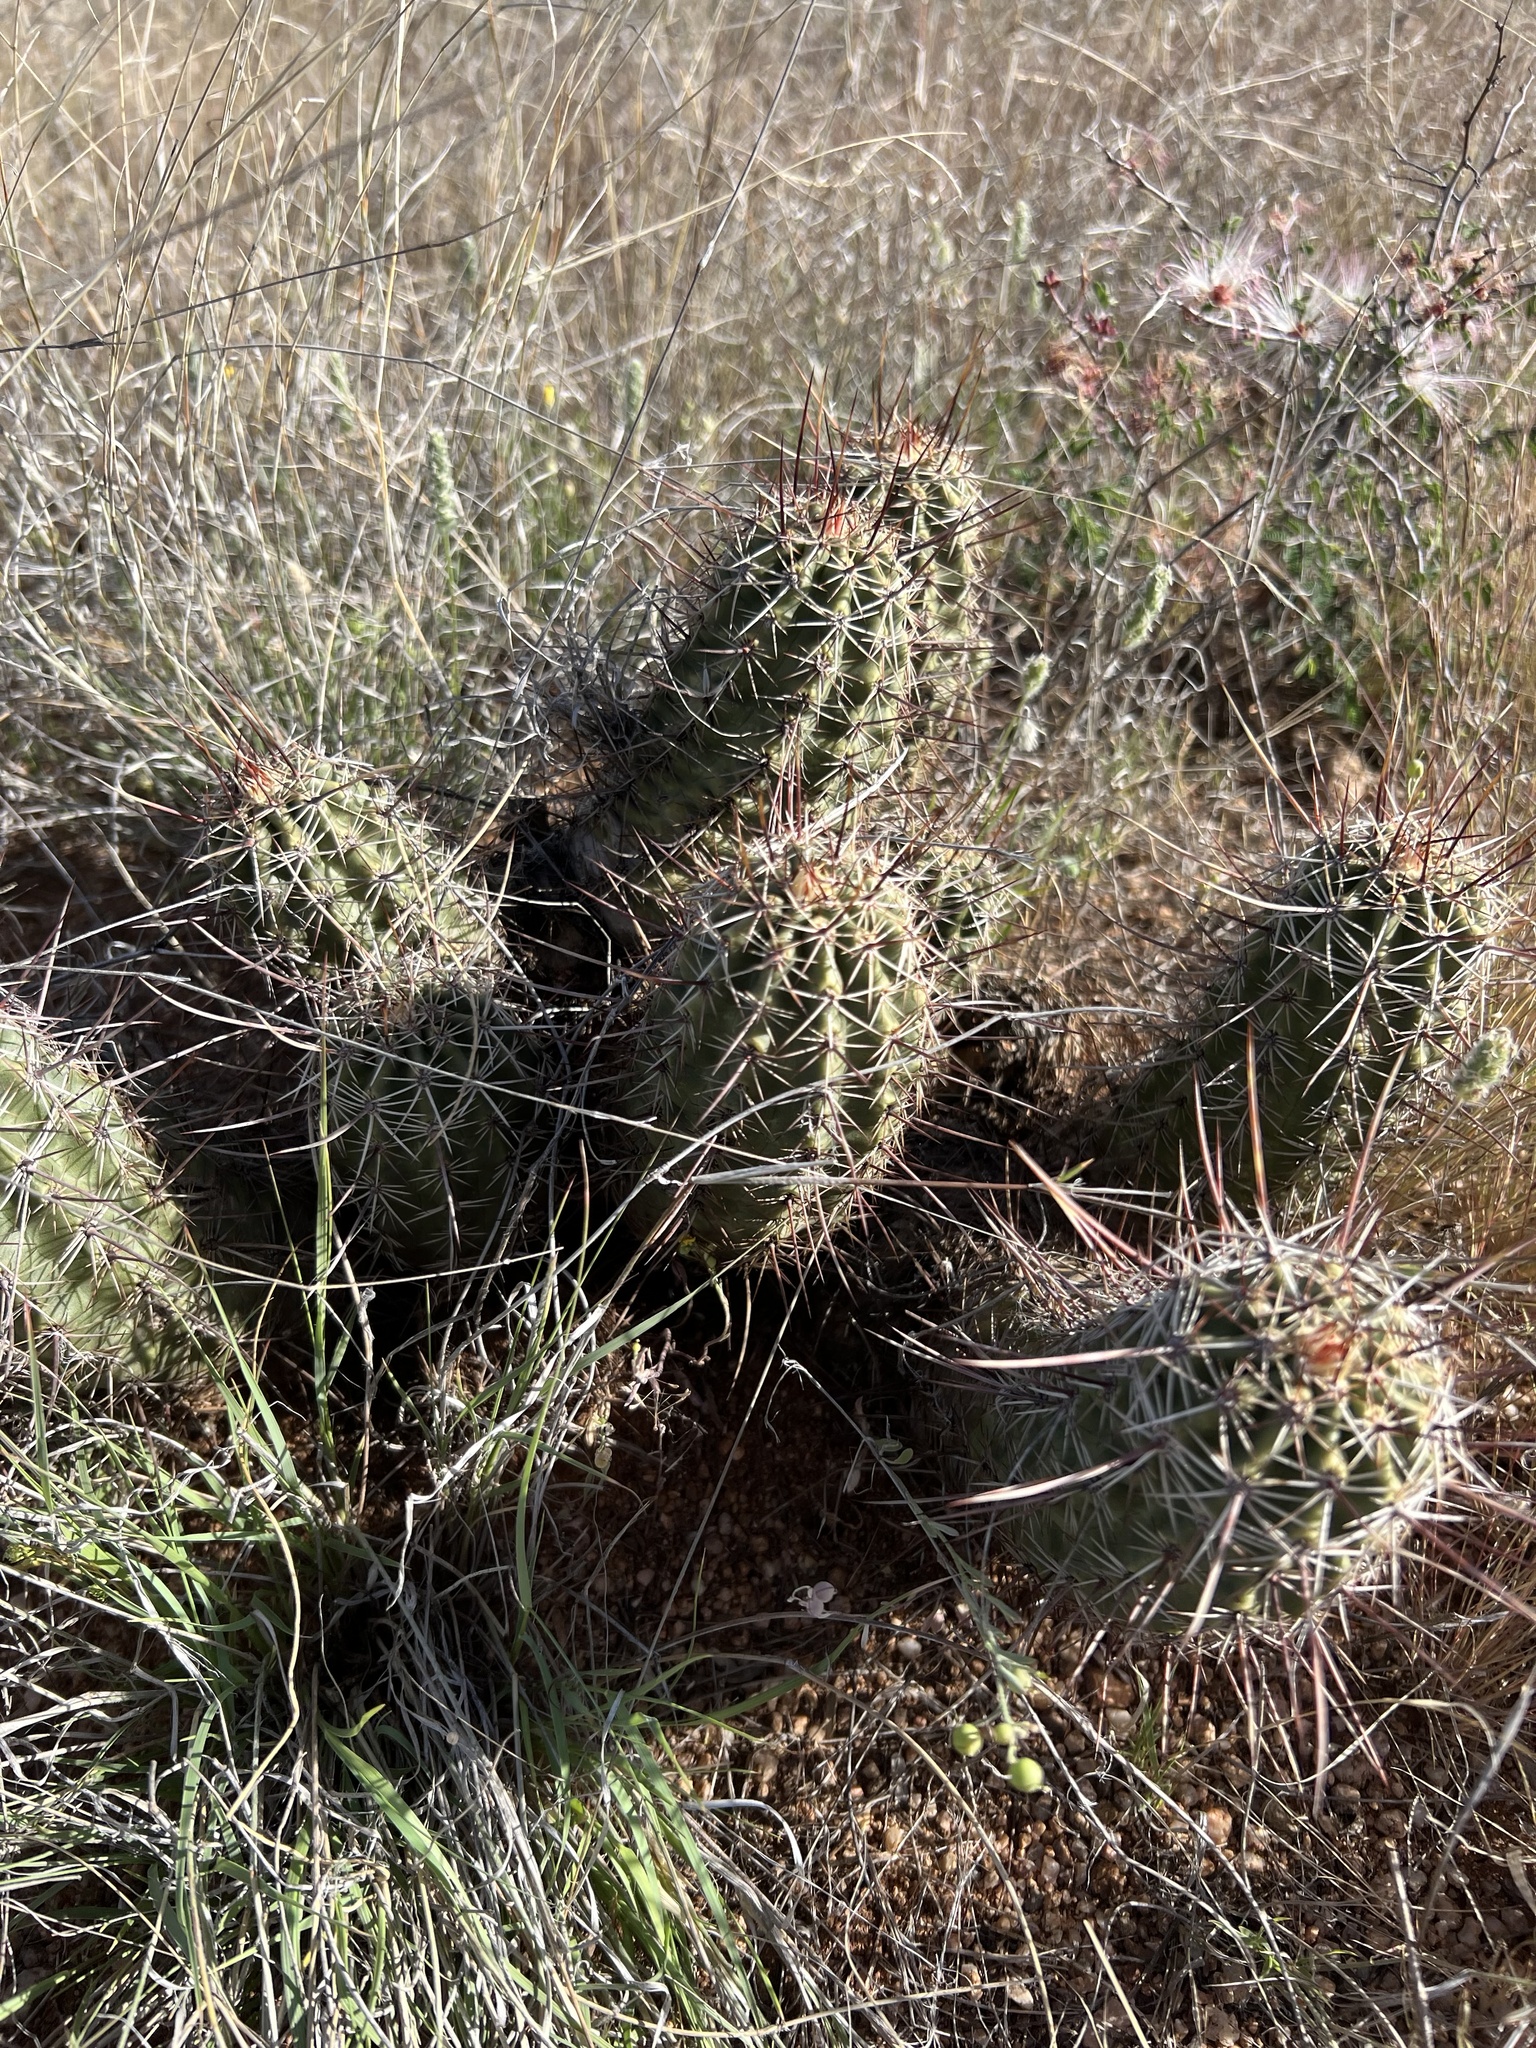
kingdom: Plantae
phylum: Tracheophyta
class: Magnoliopsida
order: Caryophyllales
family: Cactaceae
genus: Echinocereus
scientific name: Echinocereus fasciculatus
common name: Bundle hedgehog
